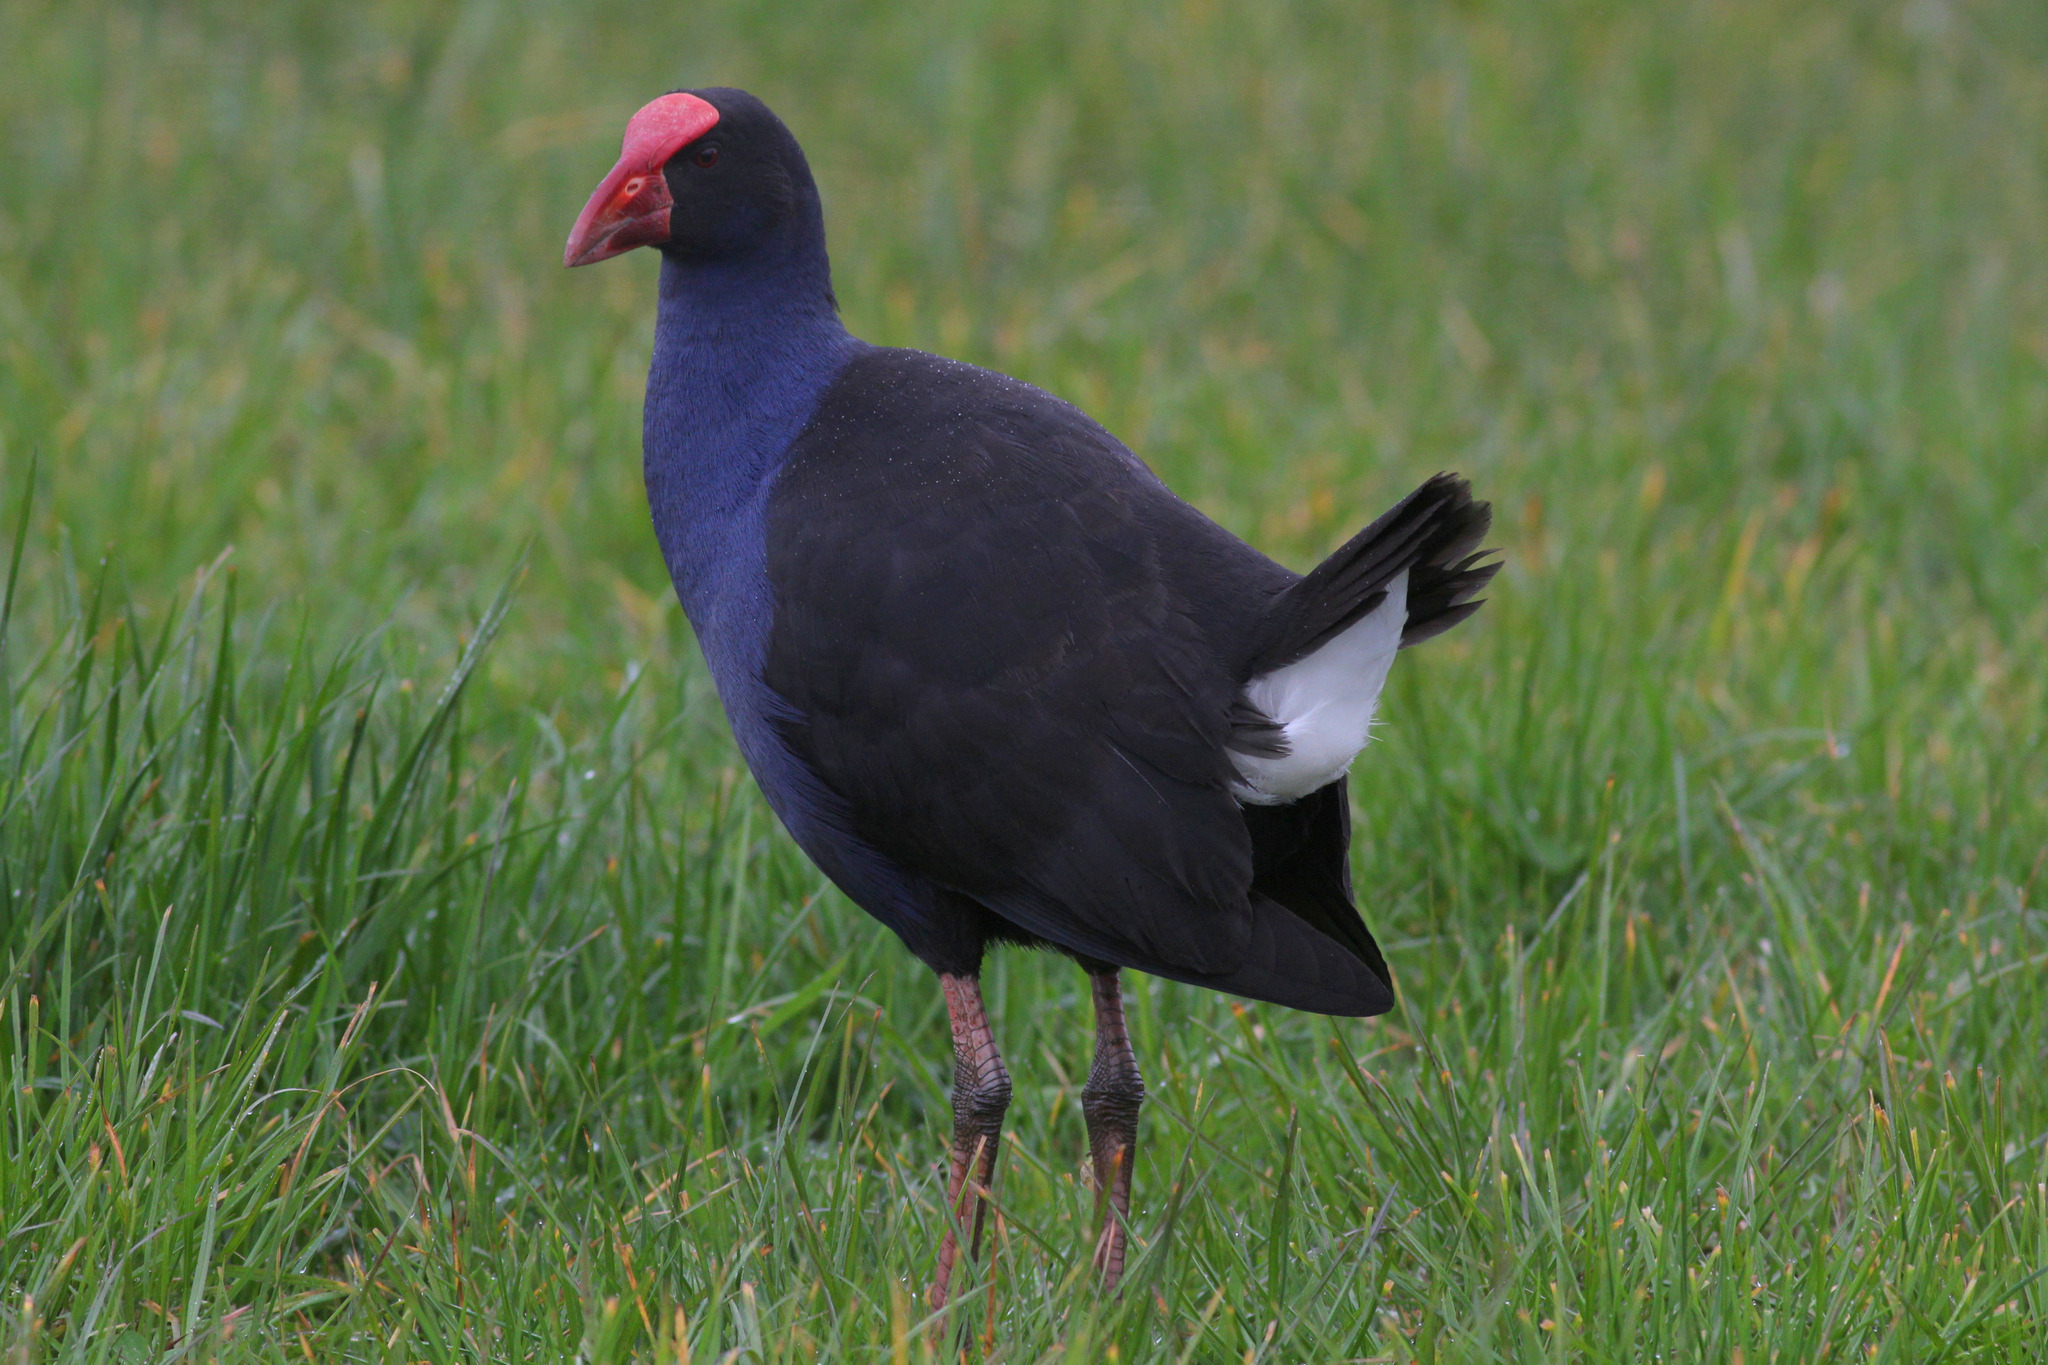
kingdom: Animalia
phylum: Chordata
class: Aves
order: Gruiformes
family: Rallidae
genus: Porphyrio
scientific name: Porphyrio melanotus
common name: Australasian swamphen
